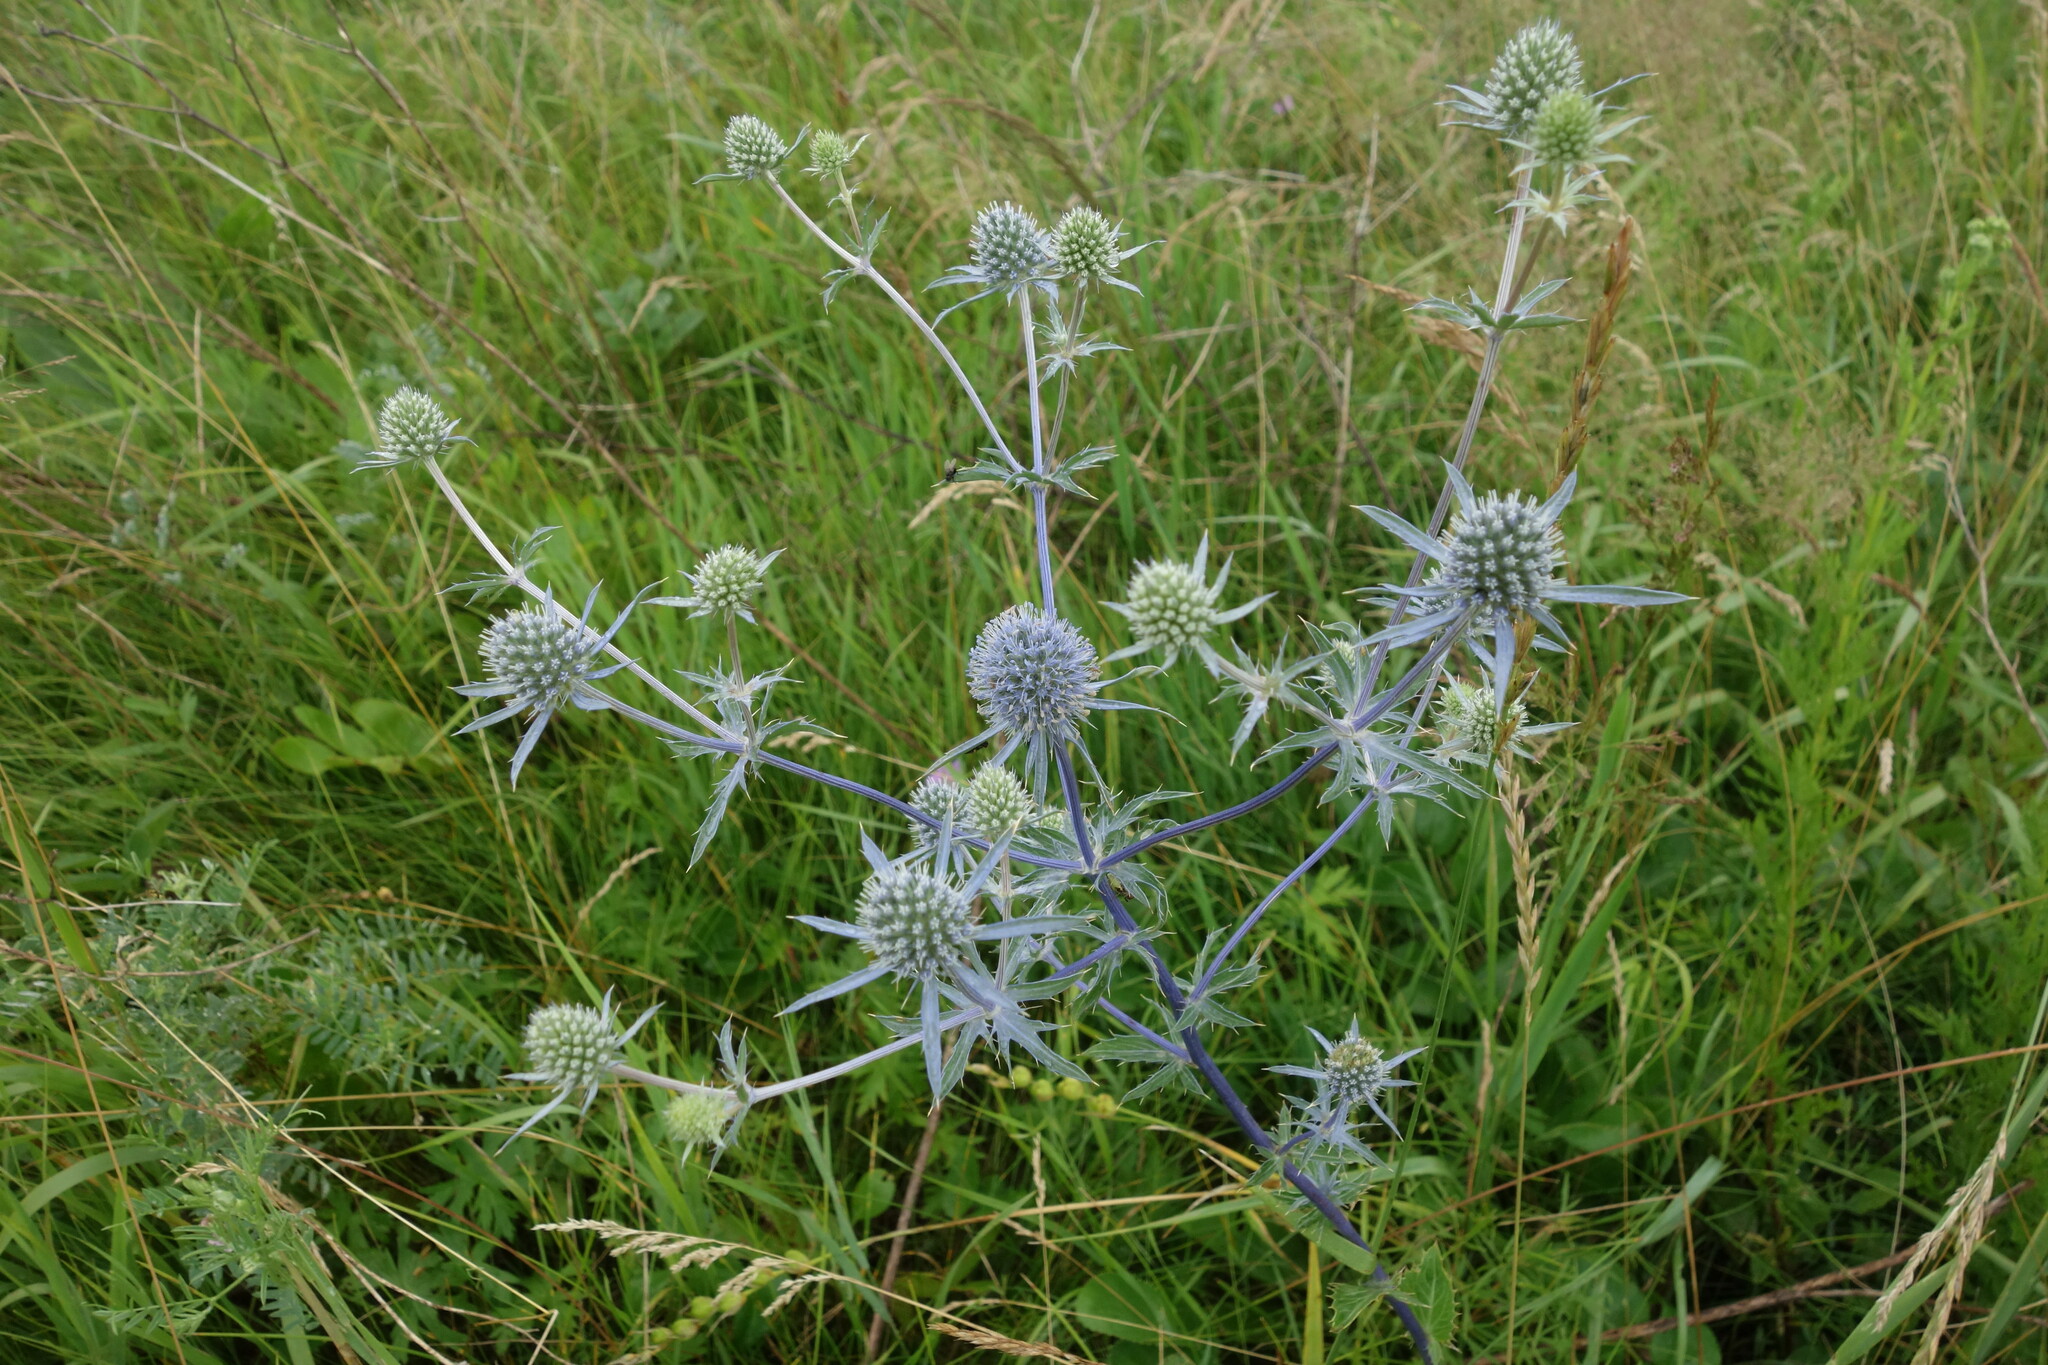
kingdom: Plantae
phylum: Tracheophyta
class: Magnoliopsida
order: Apiales
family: Apiaceae
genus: Eryngium
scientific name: Eryngium planum
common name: Blue eryngo
